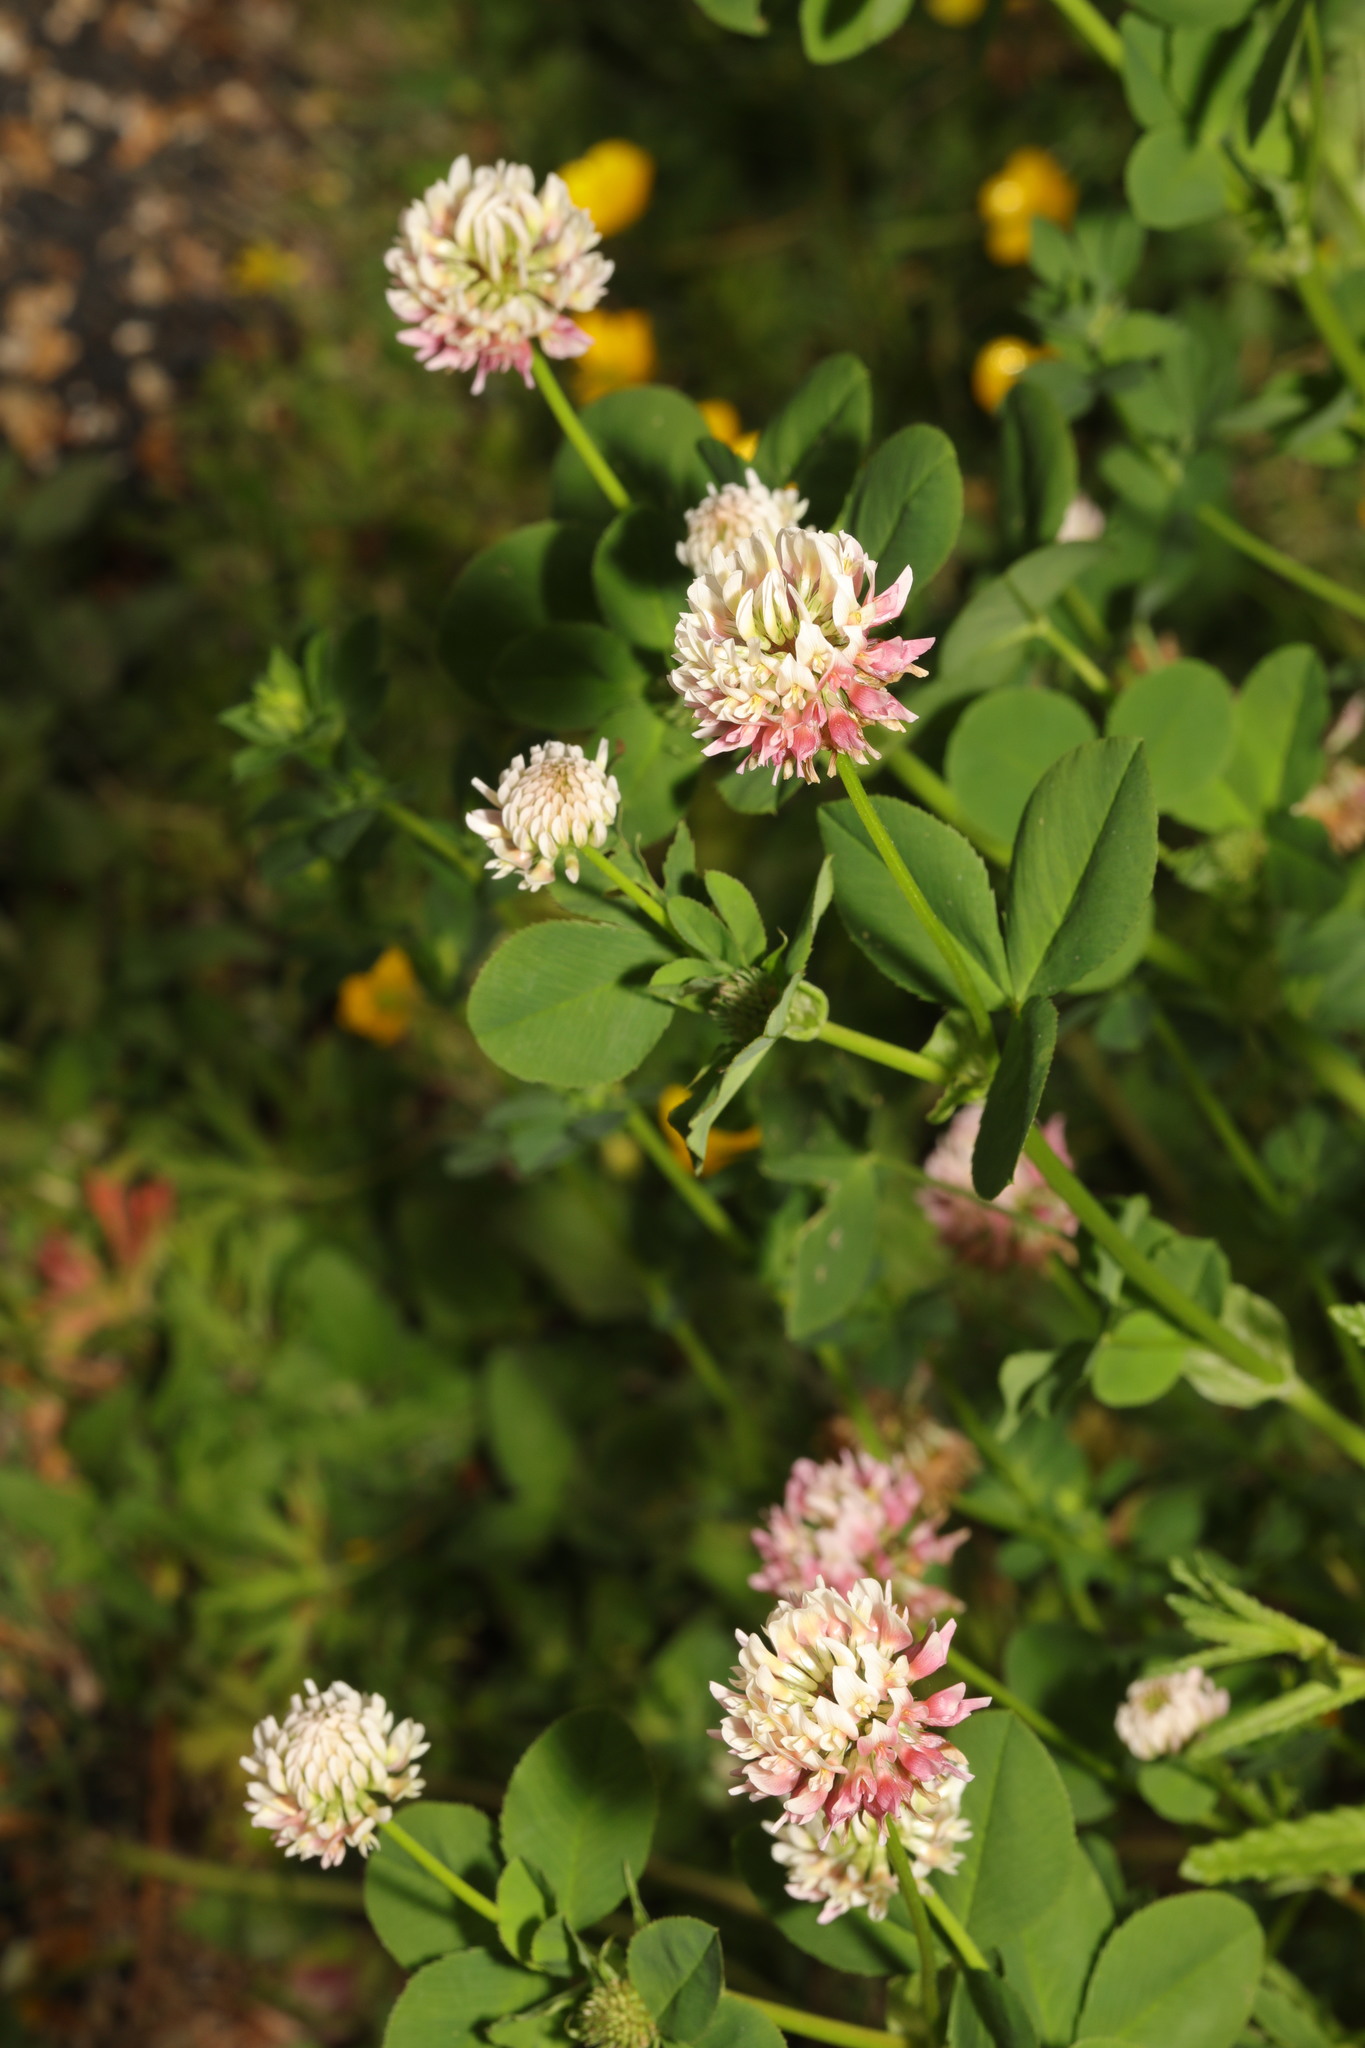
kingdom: Plantae
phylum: Tracheophyta
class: Magnoliopsida
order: Fabales
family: Fabaceae
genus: Trifolium
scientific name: Trifolium hybridum
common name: Alsike clover
